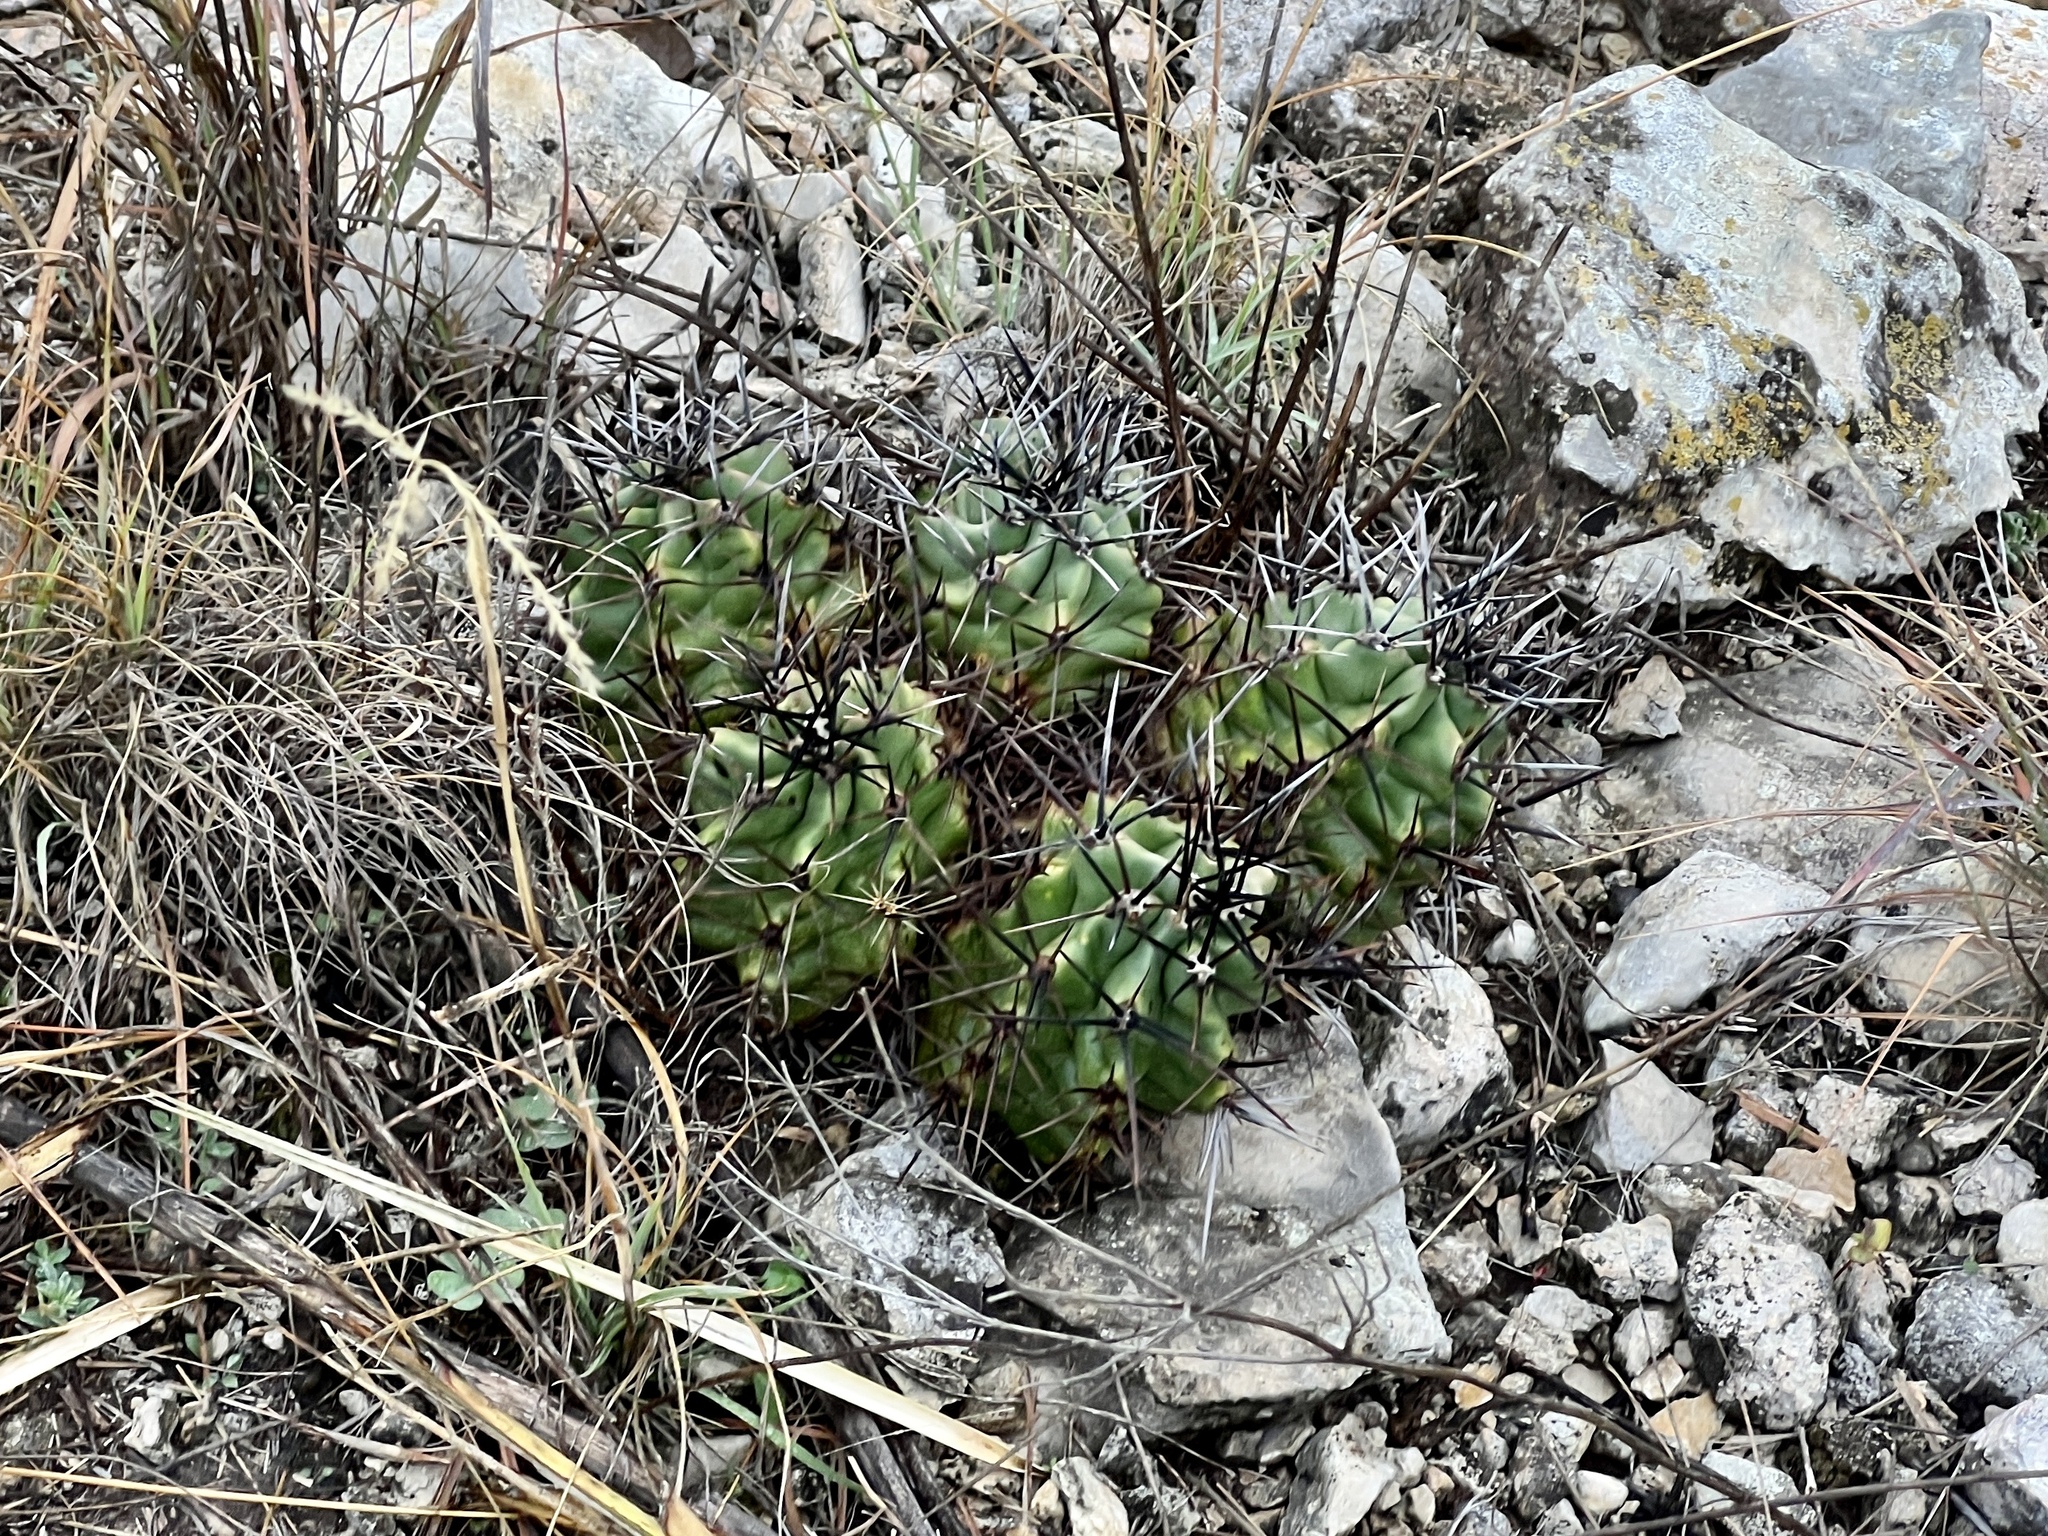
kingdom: Plantae
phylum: Tracheophyta
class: Magnoliopsida
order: Caryophyllales
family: Cactaceae
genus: Echinocereus
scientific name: Echinocereus coccineus
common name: Scarlet hedgehog cactus
